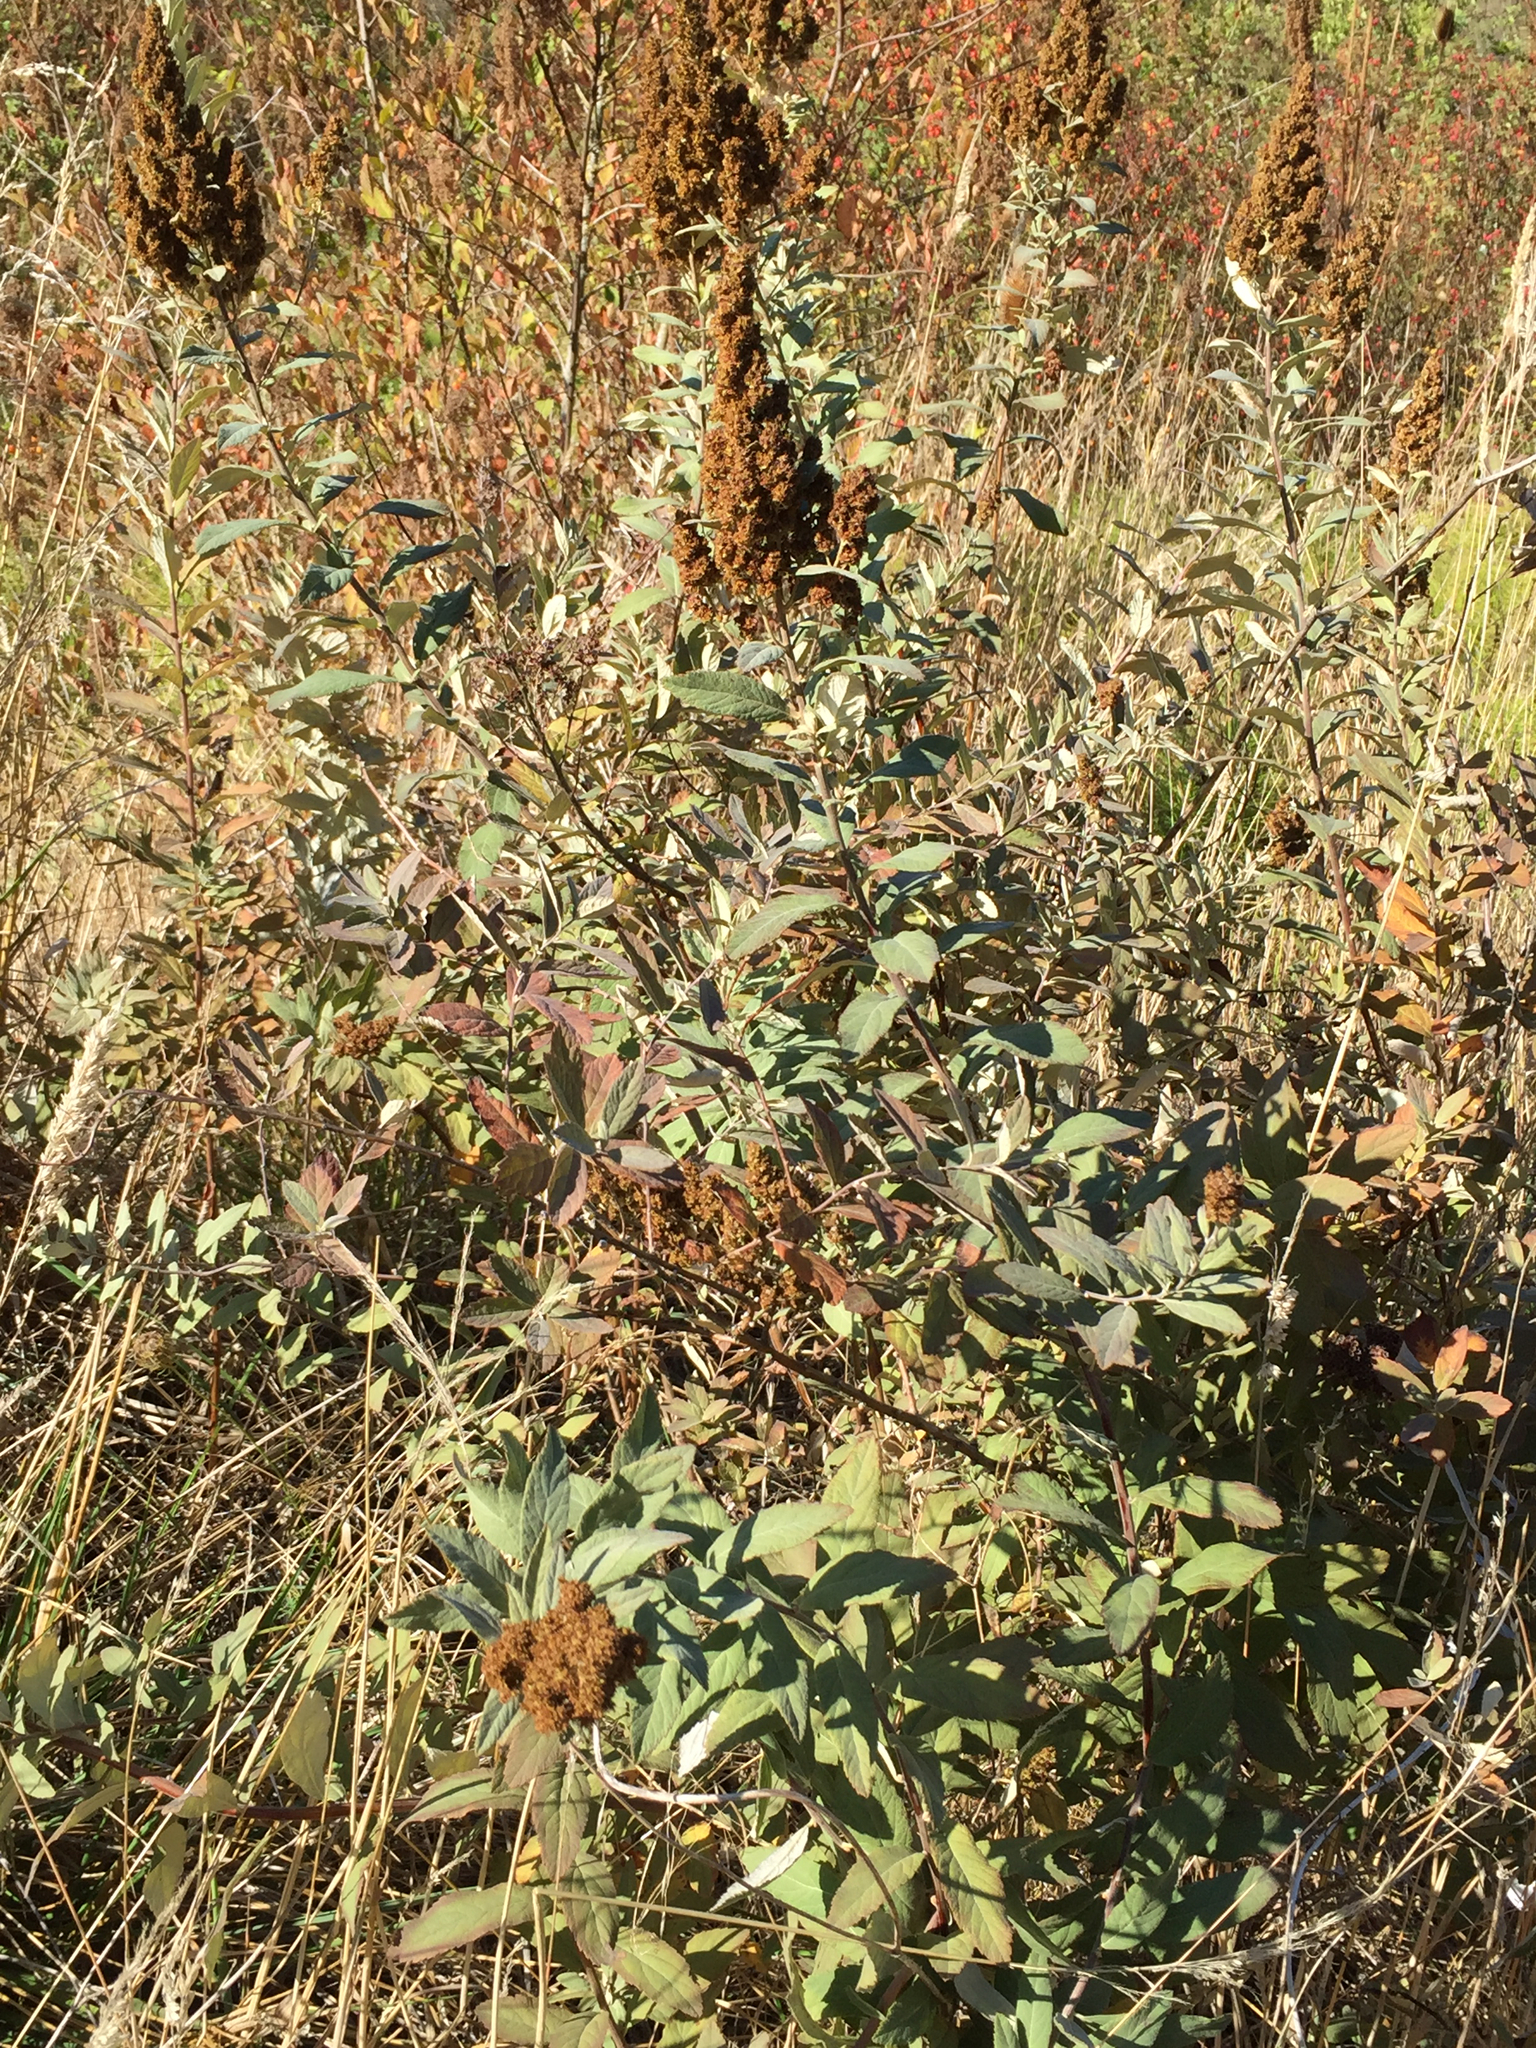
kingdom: Plantae
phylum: Tracheophyta
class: Magnoliopsida
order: Rosales
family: Rosaceae
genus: Spiraea
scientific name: Spiraea douglasii
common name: Steeplebush
